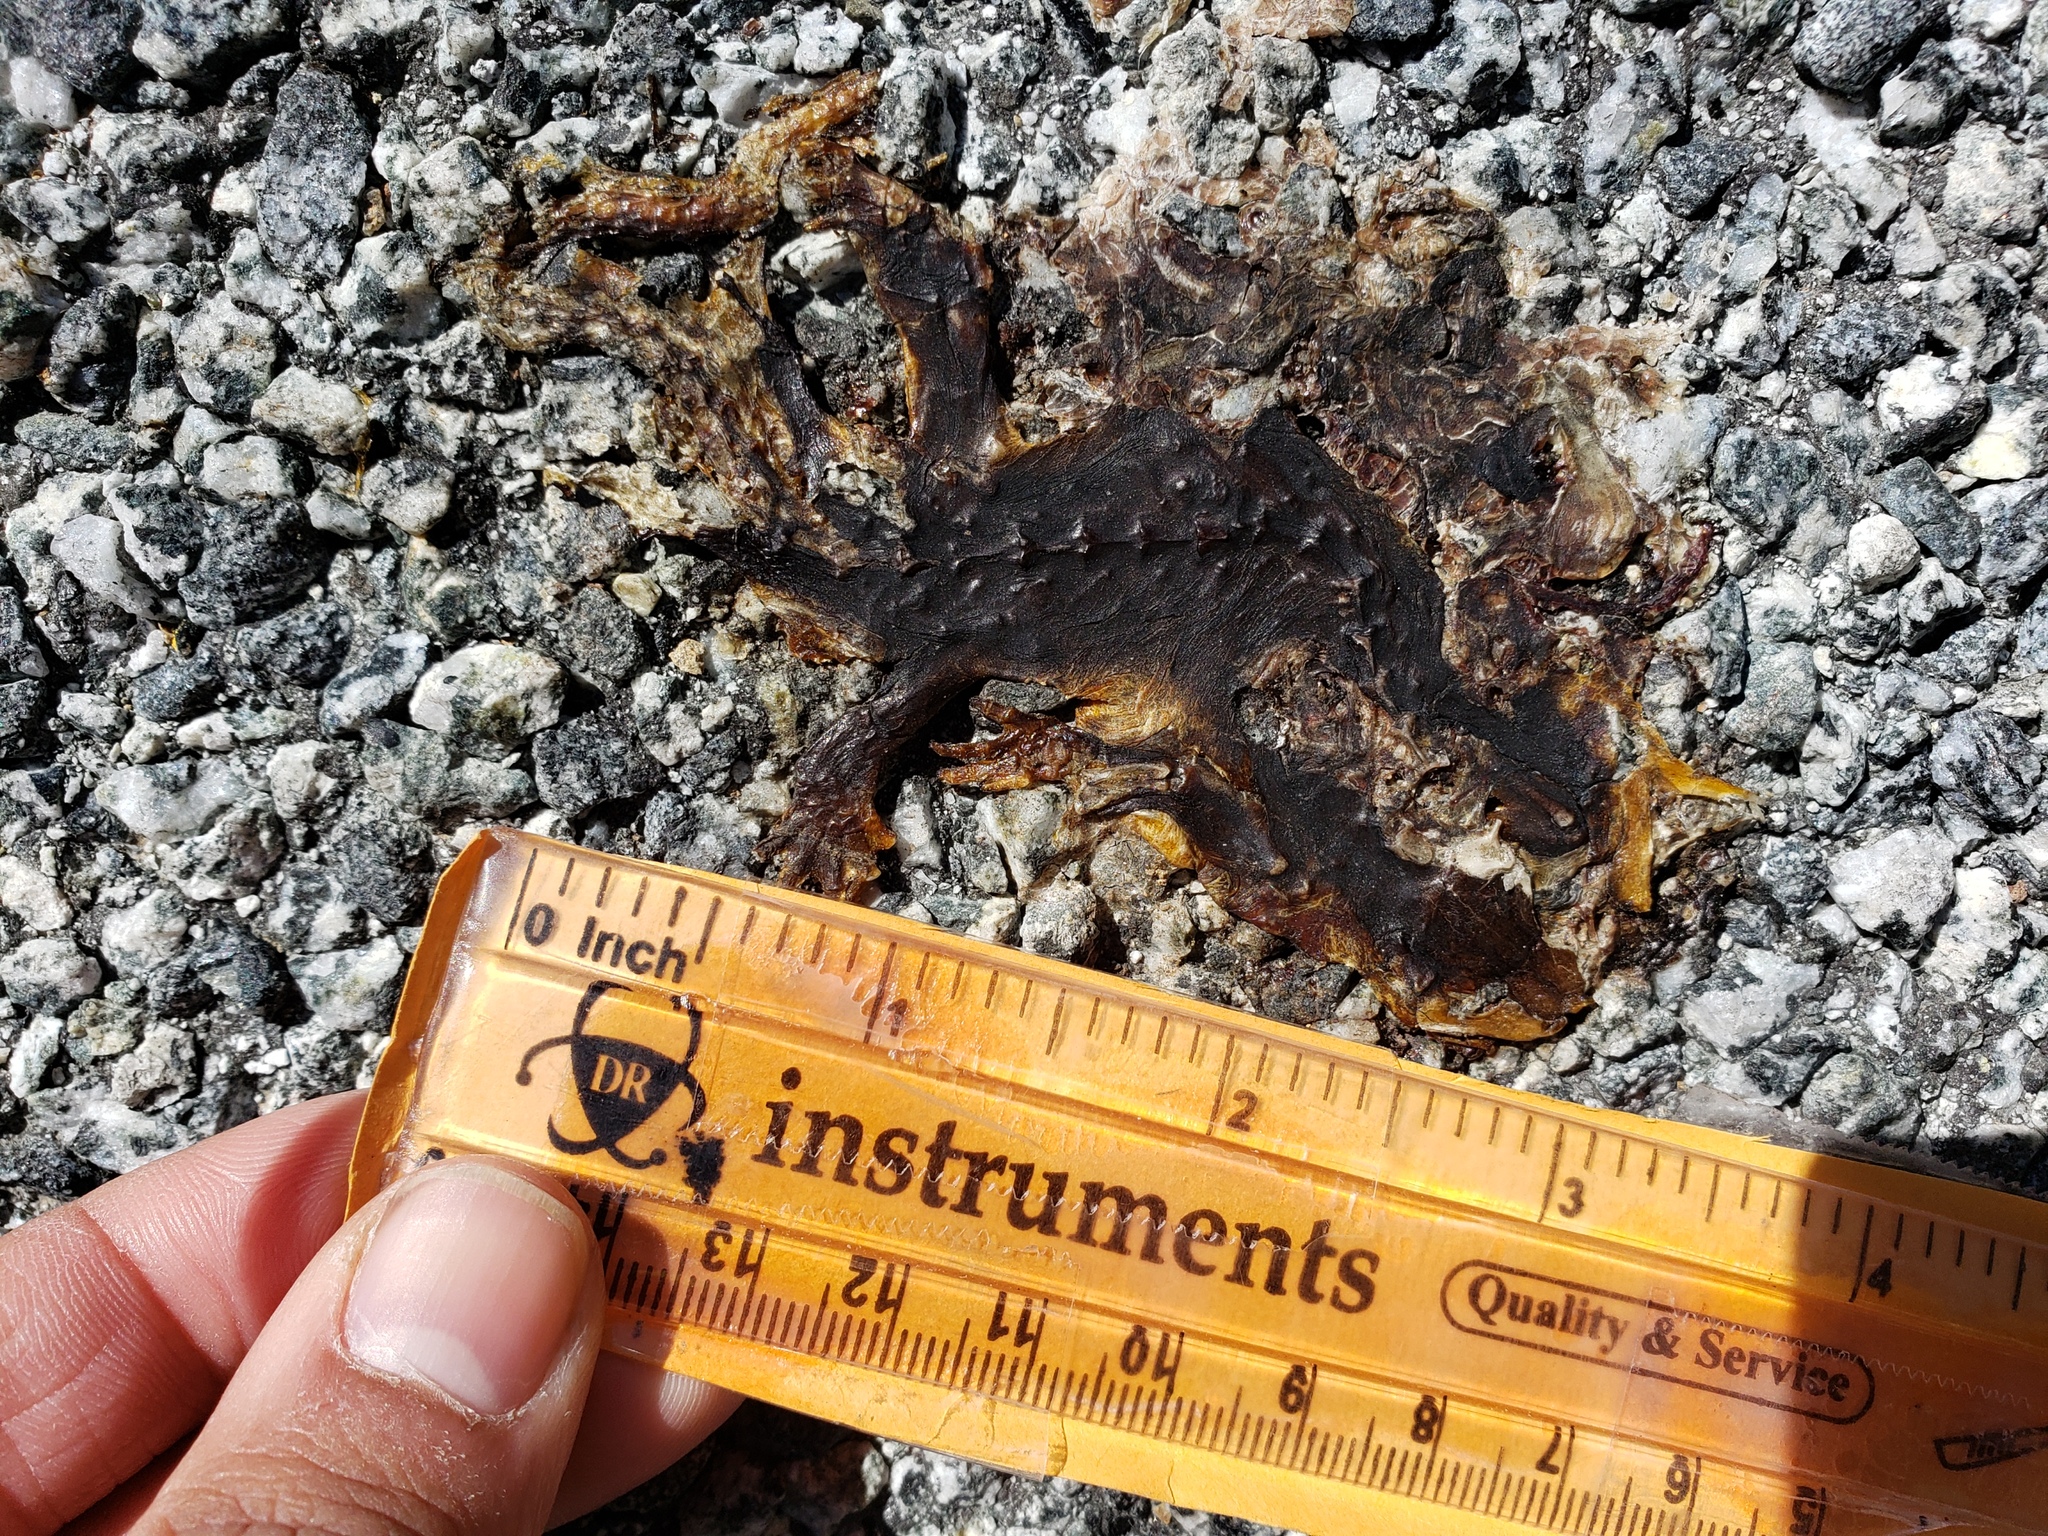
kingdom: Animalia
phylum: Chordata
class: Amphibia
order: Caudata
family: Salamandridae
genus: Taricha
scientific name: Taricha
